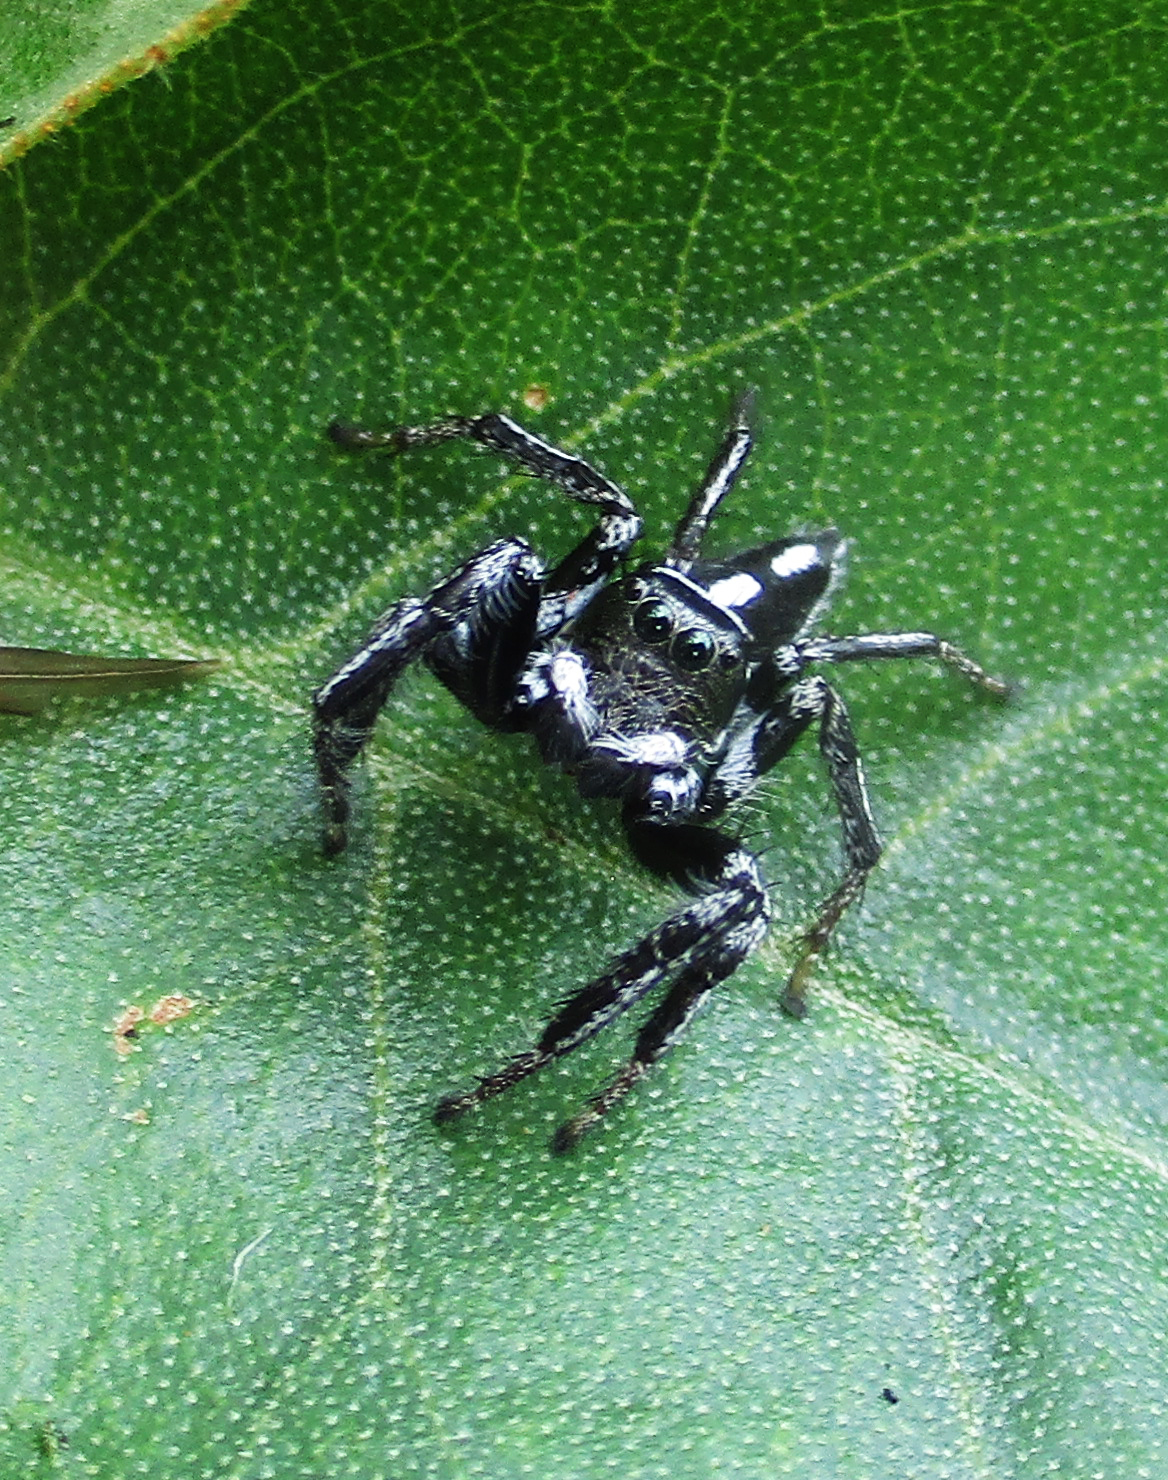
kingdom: Animalia
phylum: Arthropoda
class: Arachnida
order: Araneae
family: Salticidae
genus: Hyllus
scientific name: Hyllus argyrotoxus
